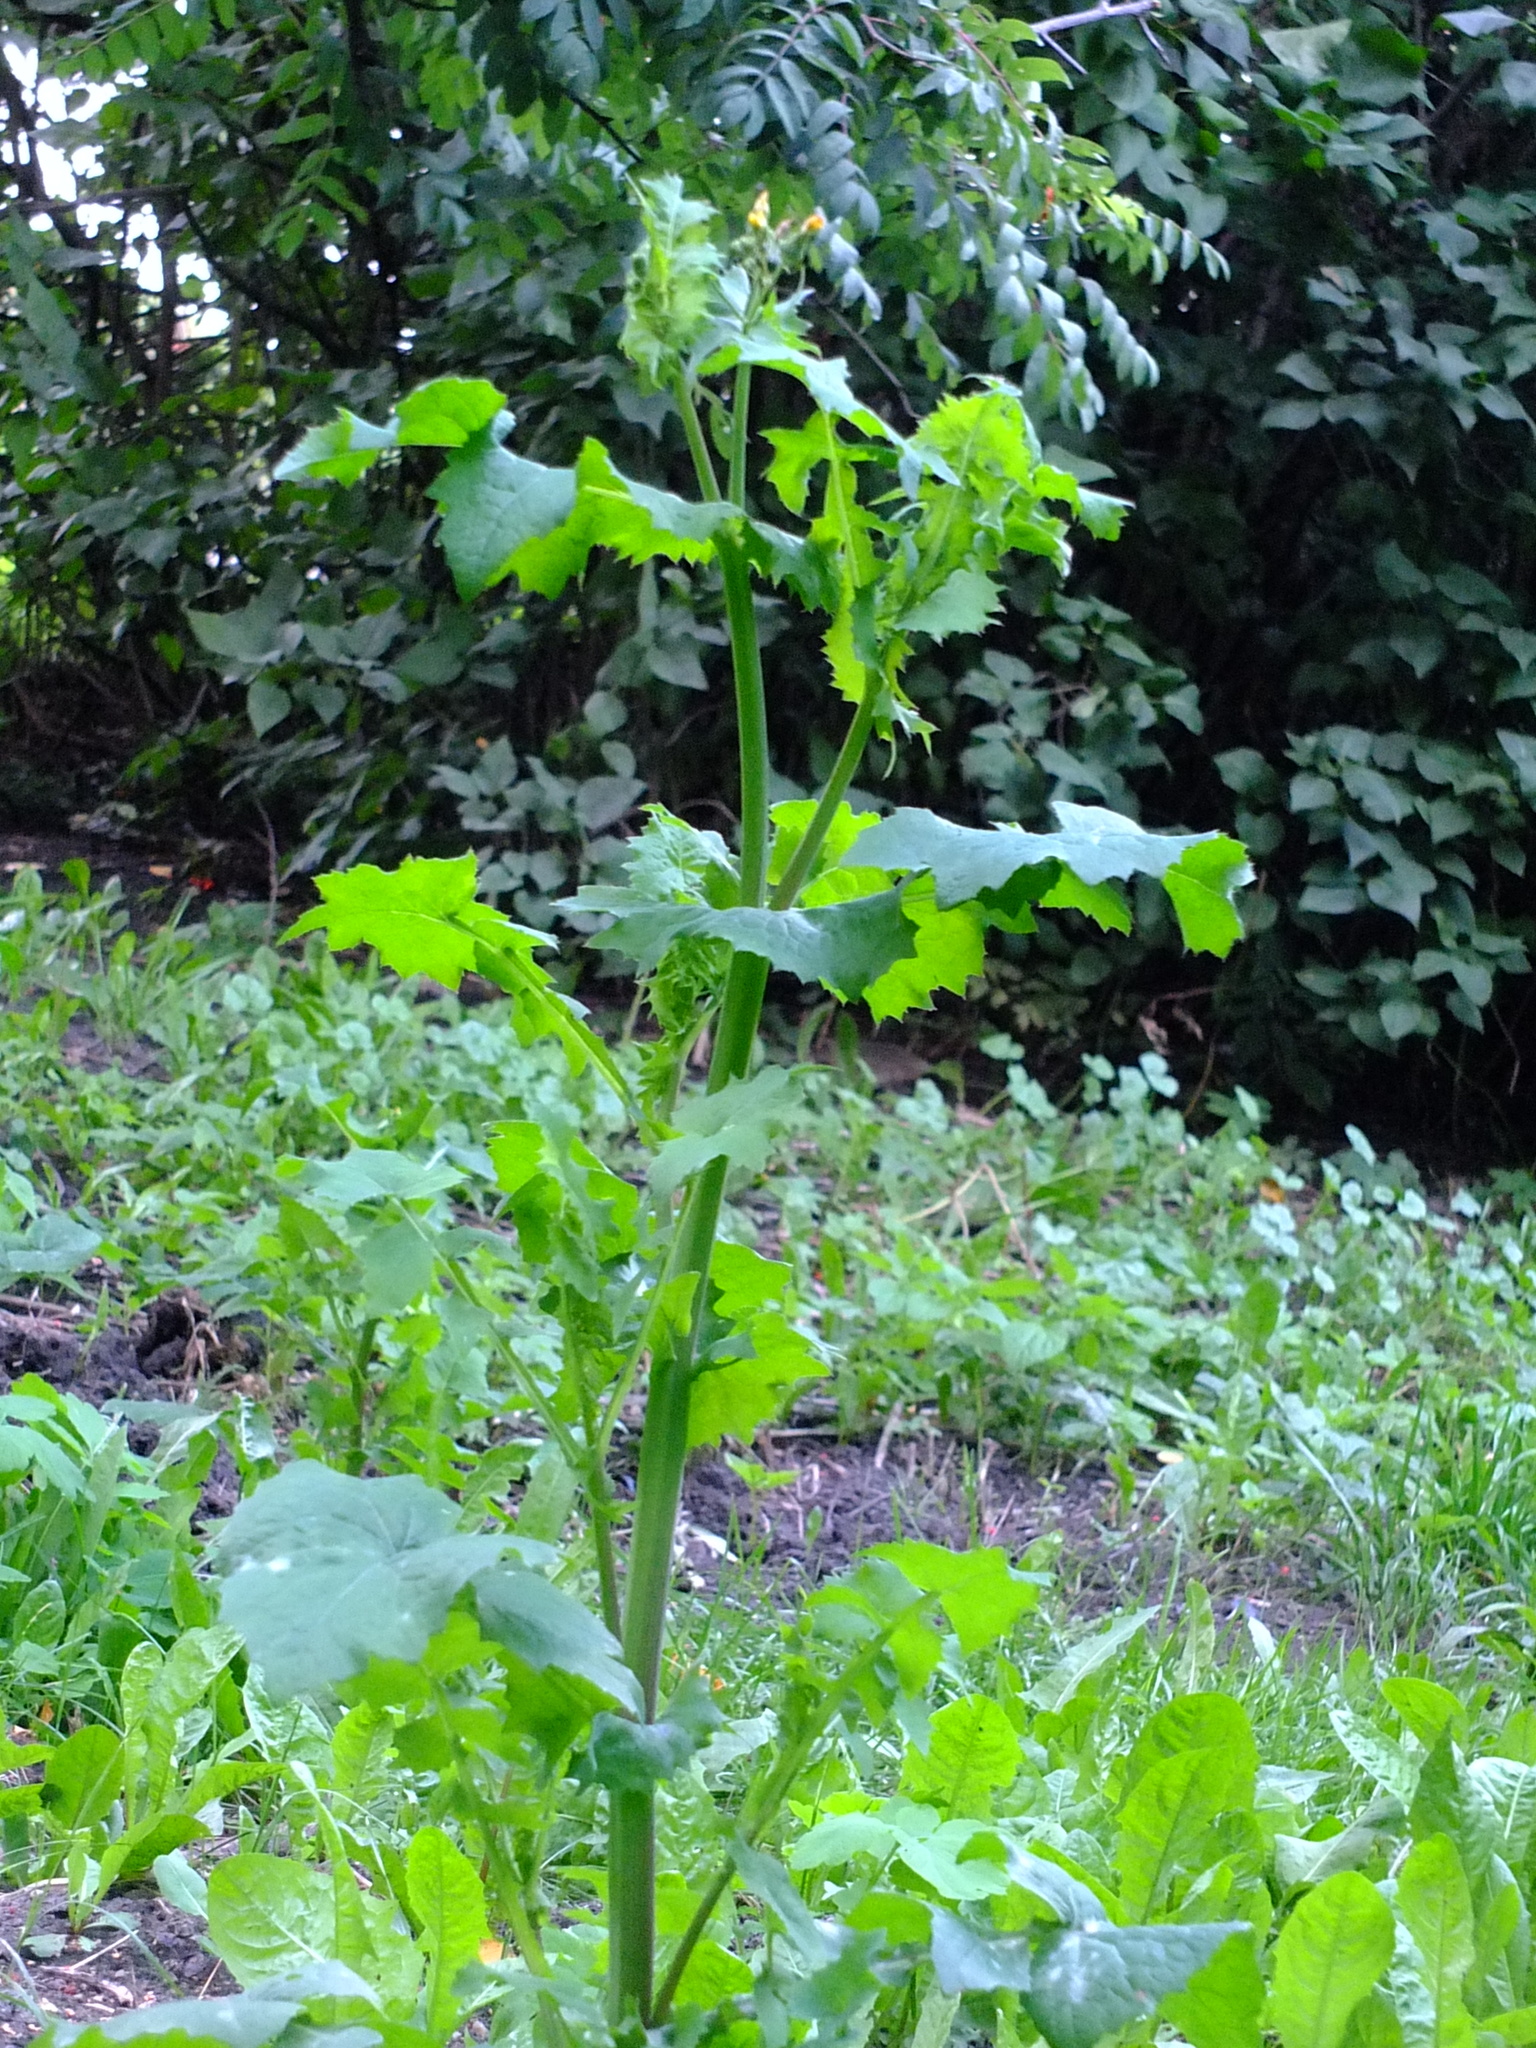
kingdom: Plantae
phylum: Tracheophyta
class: Magnoliopsida
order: Asterales
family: Asteraceae
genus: Sonchus
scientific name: Sonchus oleraceus
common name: Common sowthistle
